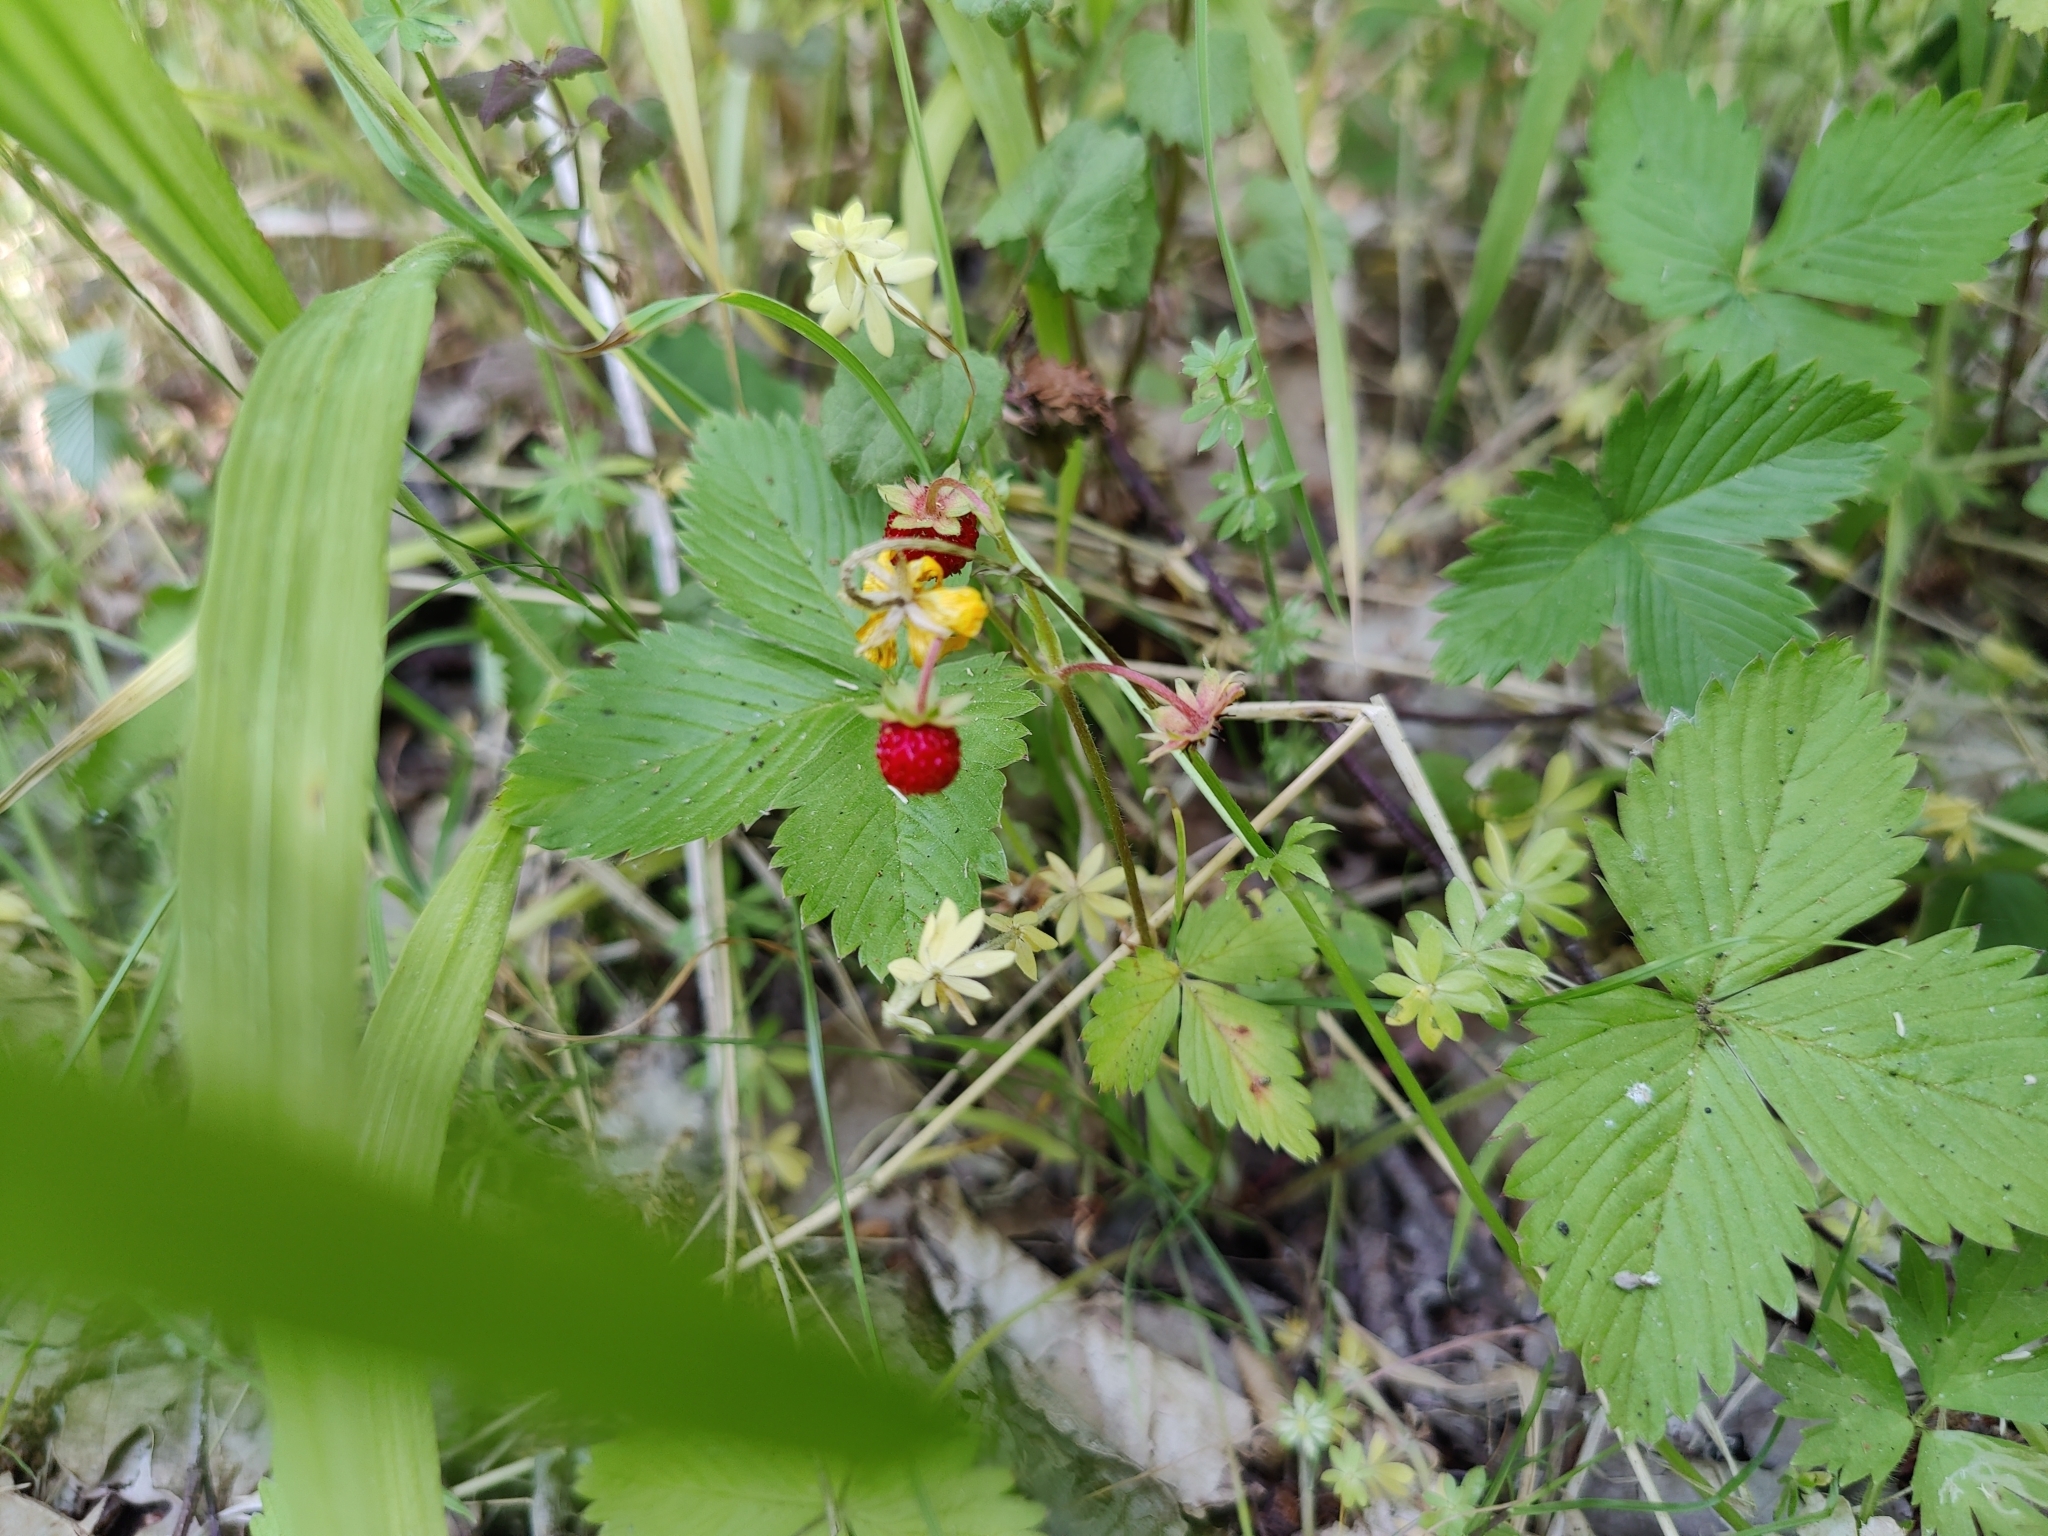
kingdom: Plantae
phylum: Tracheophyta
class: Magnoliopsida
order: Rosales
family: Rosaceae
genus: Fragaria
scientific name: Fragaria vesca
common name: Wild strawberry
